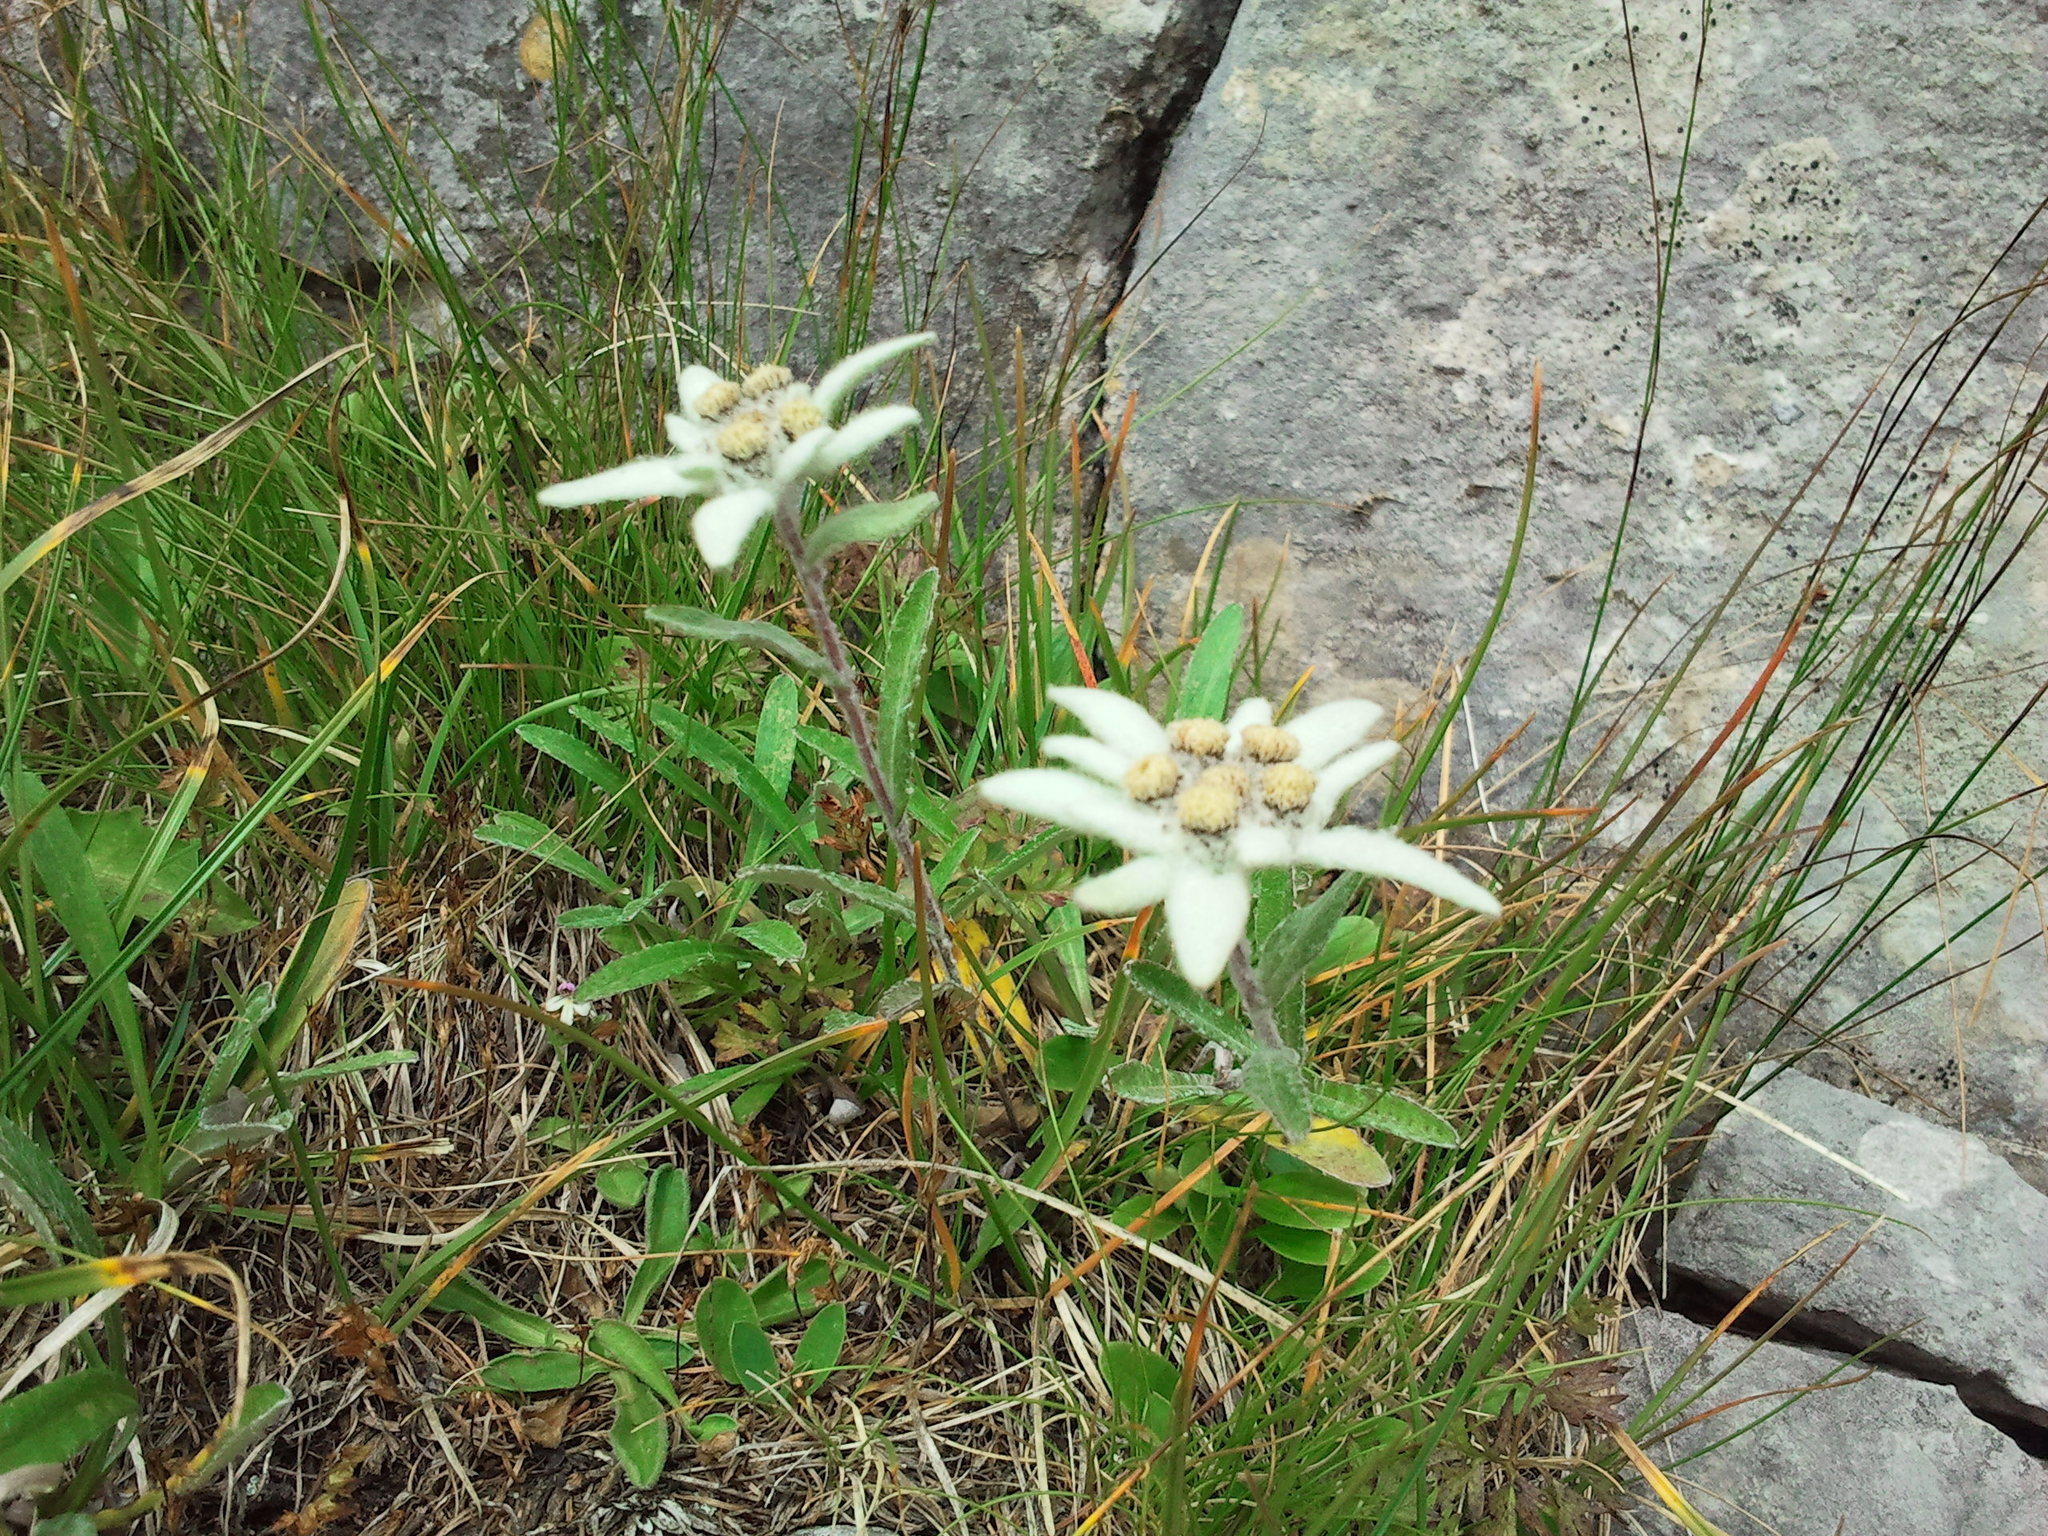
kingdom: Plantae
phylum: Tracheophyta
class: Magnoliopsida
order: Asterales
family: Asteraceae
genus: Leontopodium
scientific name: Leontopodium nivale
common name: Edelweiss
